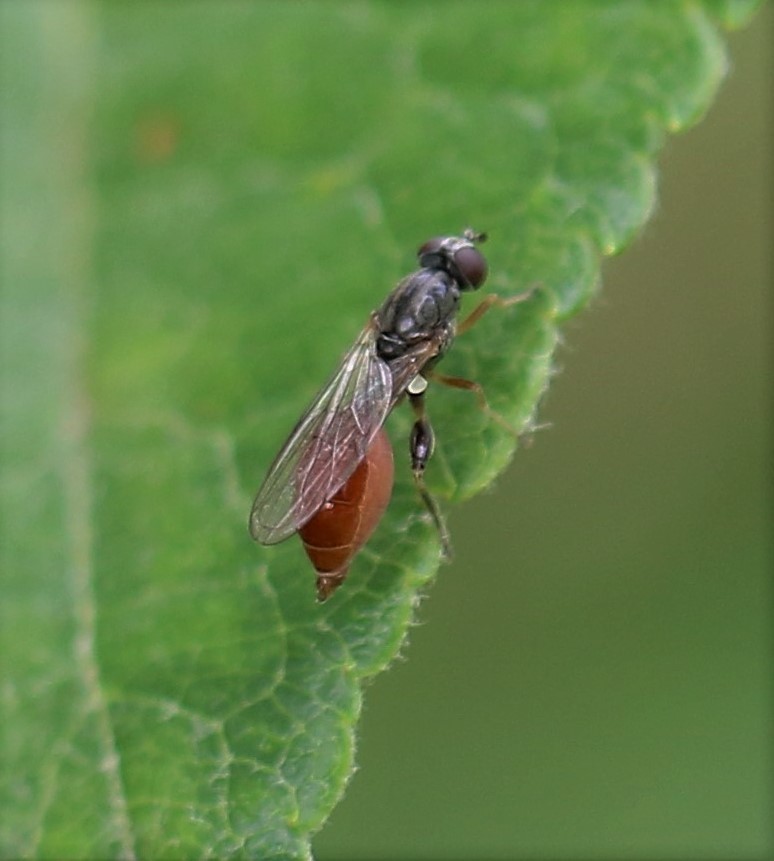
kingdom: Animalia
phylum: Arthropoda
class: Insecta
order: Diptera
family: Syrphidae
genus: Sphegina
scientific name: Sphegina rufiventris
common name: Black-horned pufftail
